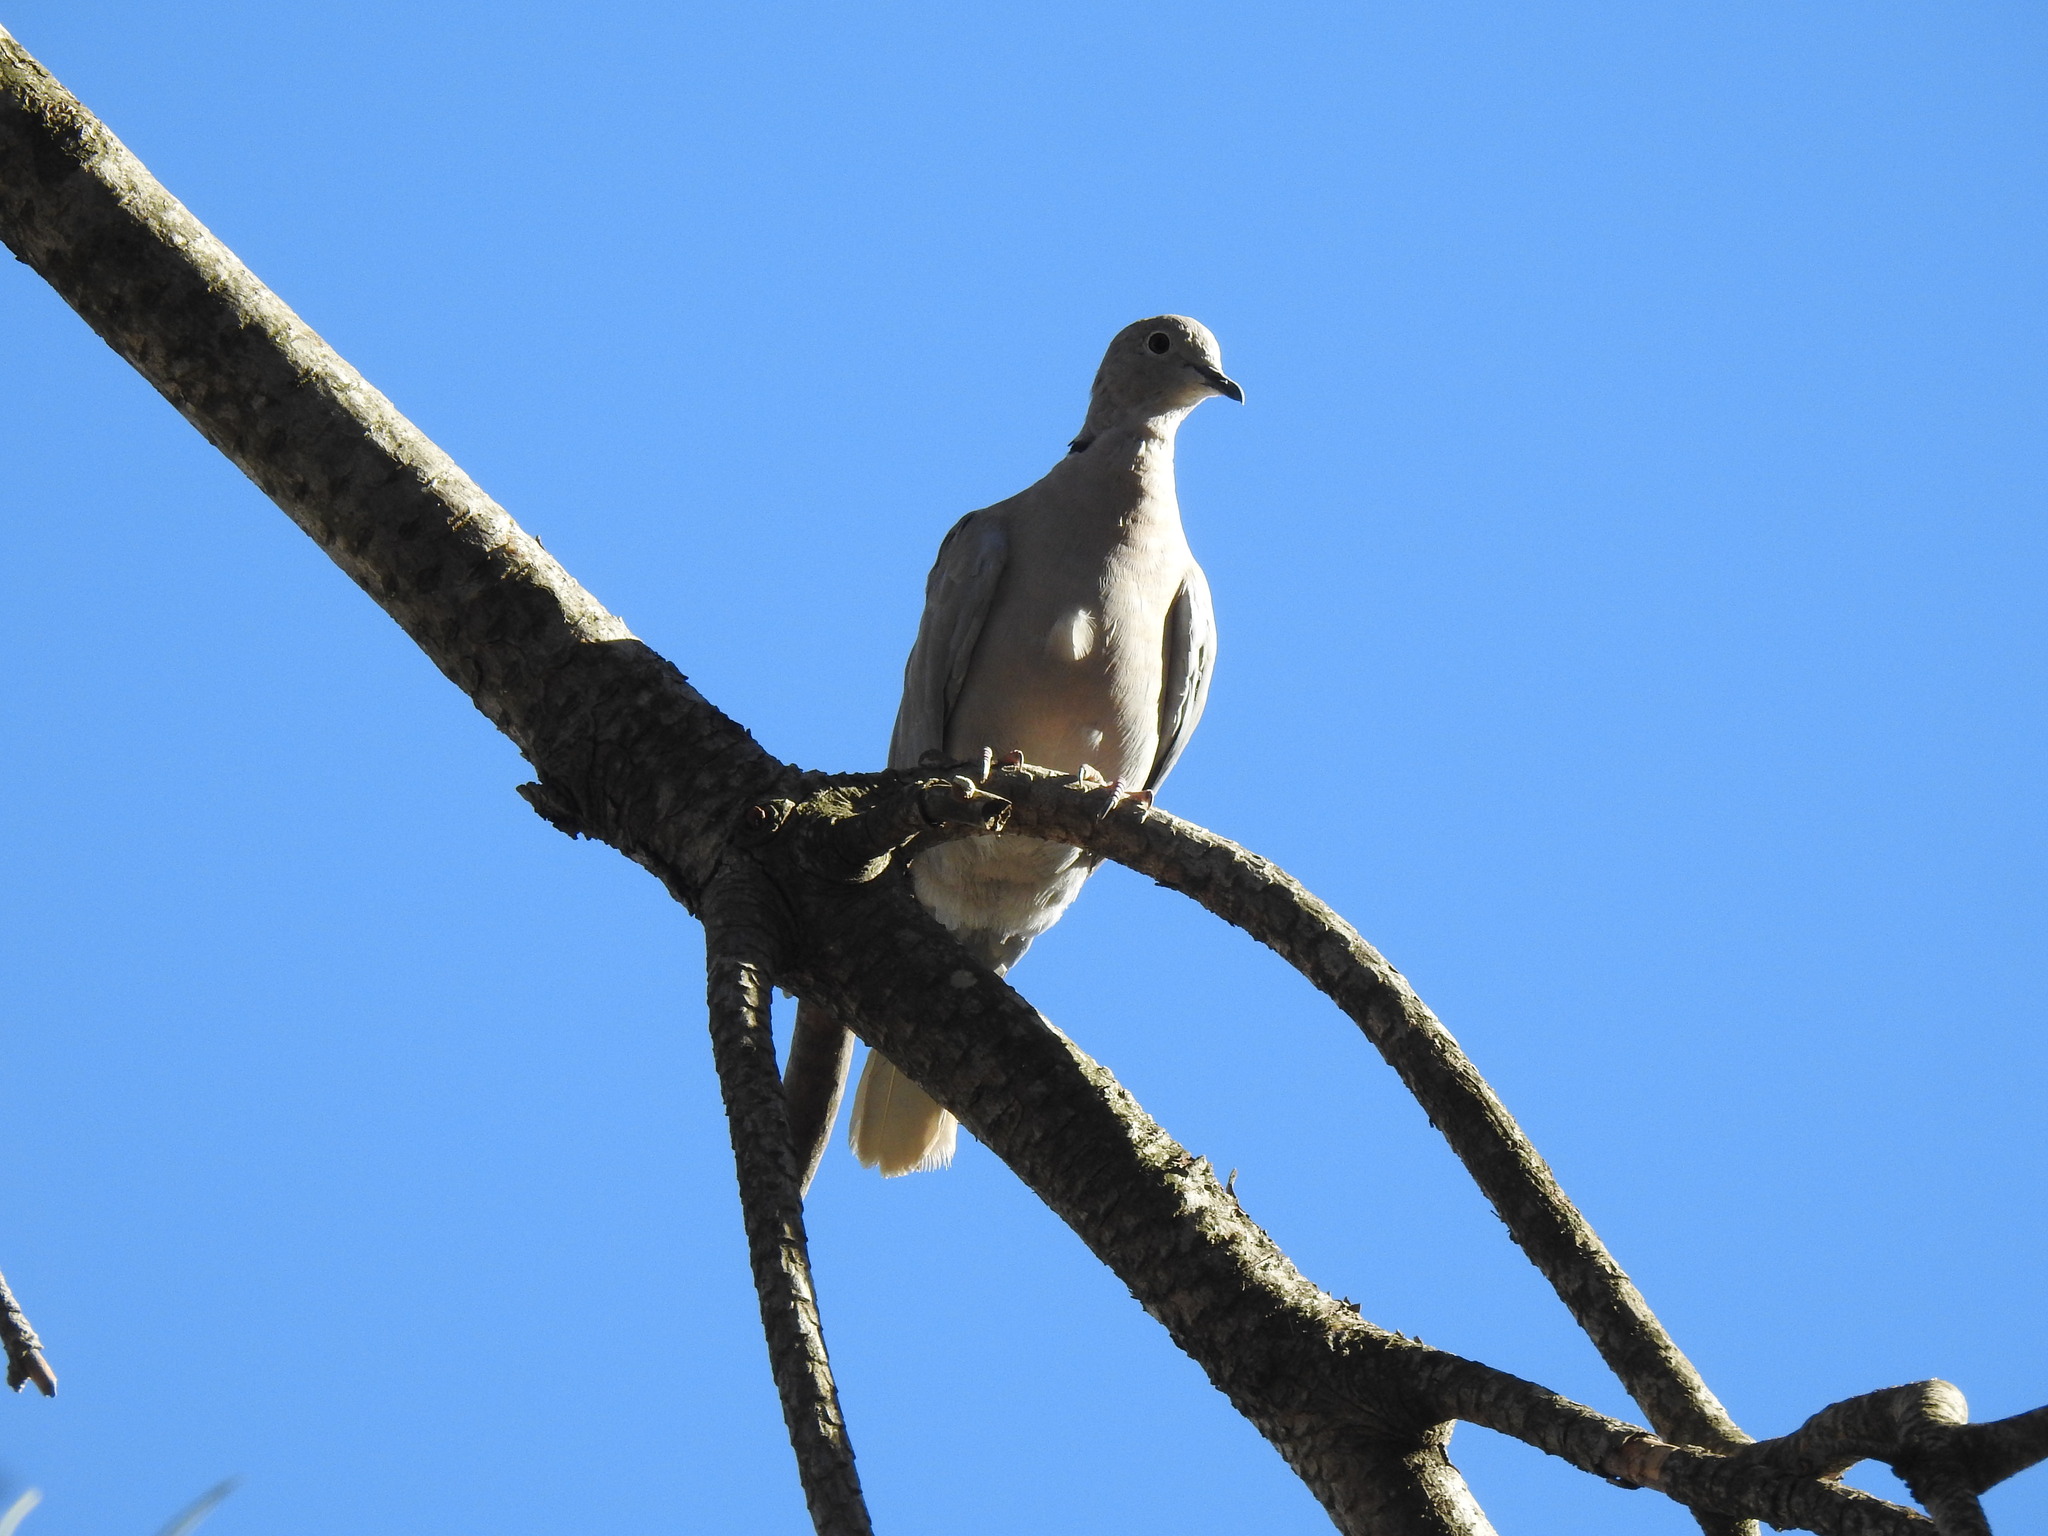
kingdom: Animalia
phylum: Chordata
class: Aves
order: Columbiformes
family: Columbidae
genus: Streptopelia
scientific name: Streptopelia decaocto
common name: Eurasian collared dove
